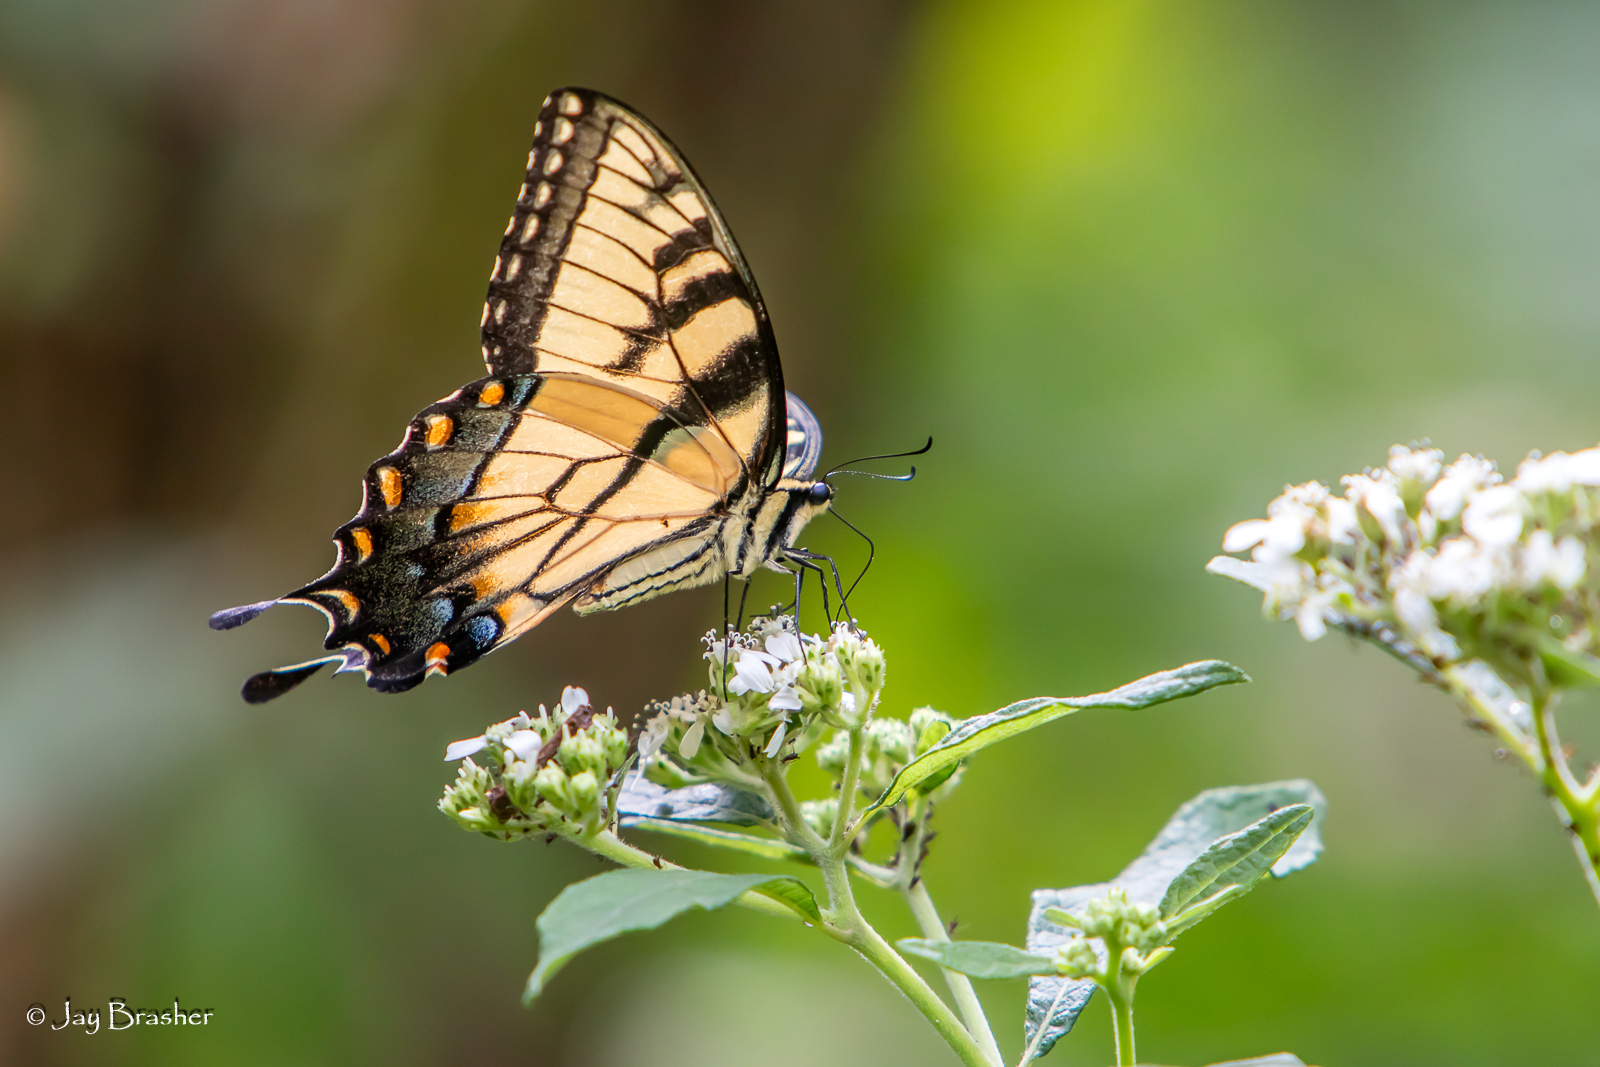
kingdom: Animalia
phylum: Arthropoda
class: Insecta
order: Lepidoptera
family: Papilionidae
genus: Papilio
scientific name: Papilio glaucus
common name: Tiger swallowtail
